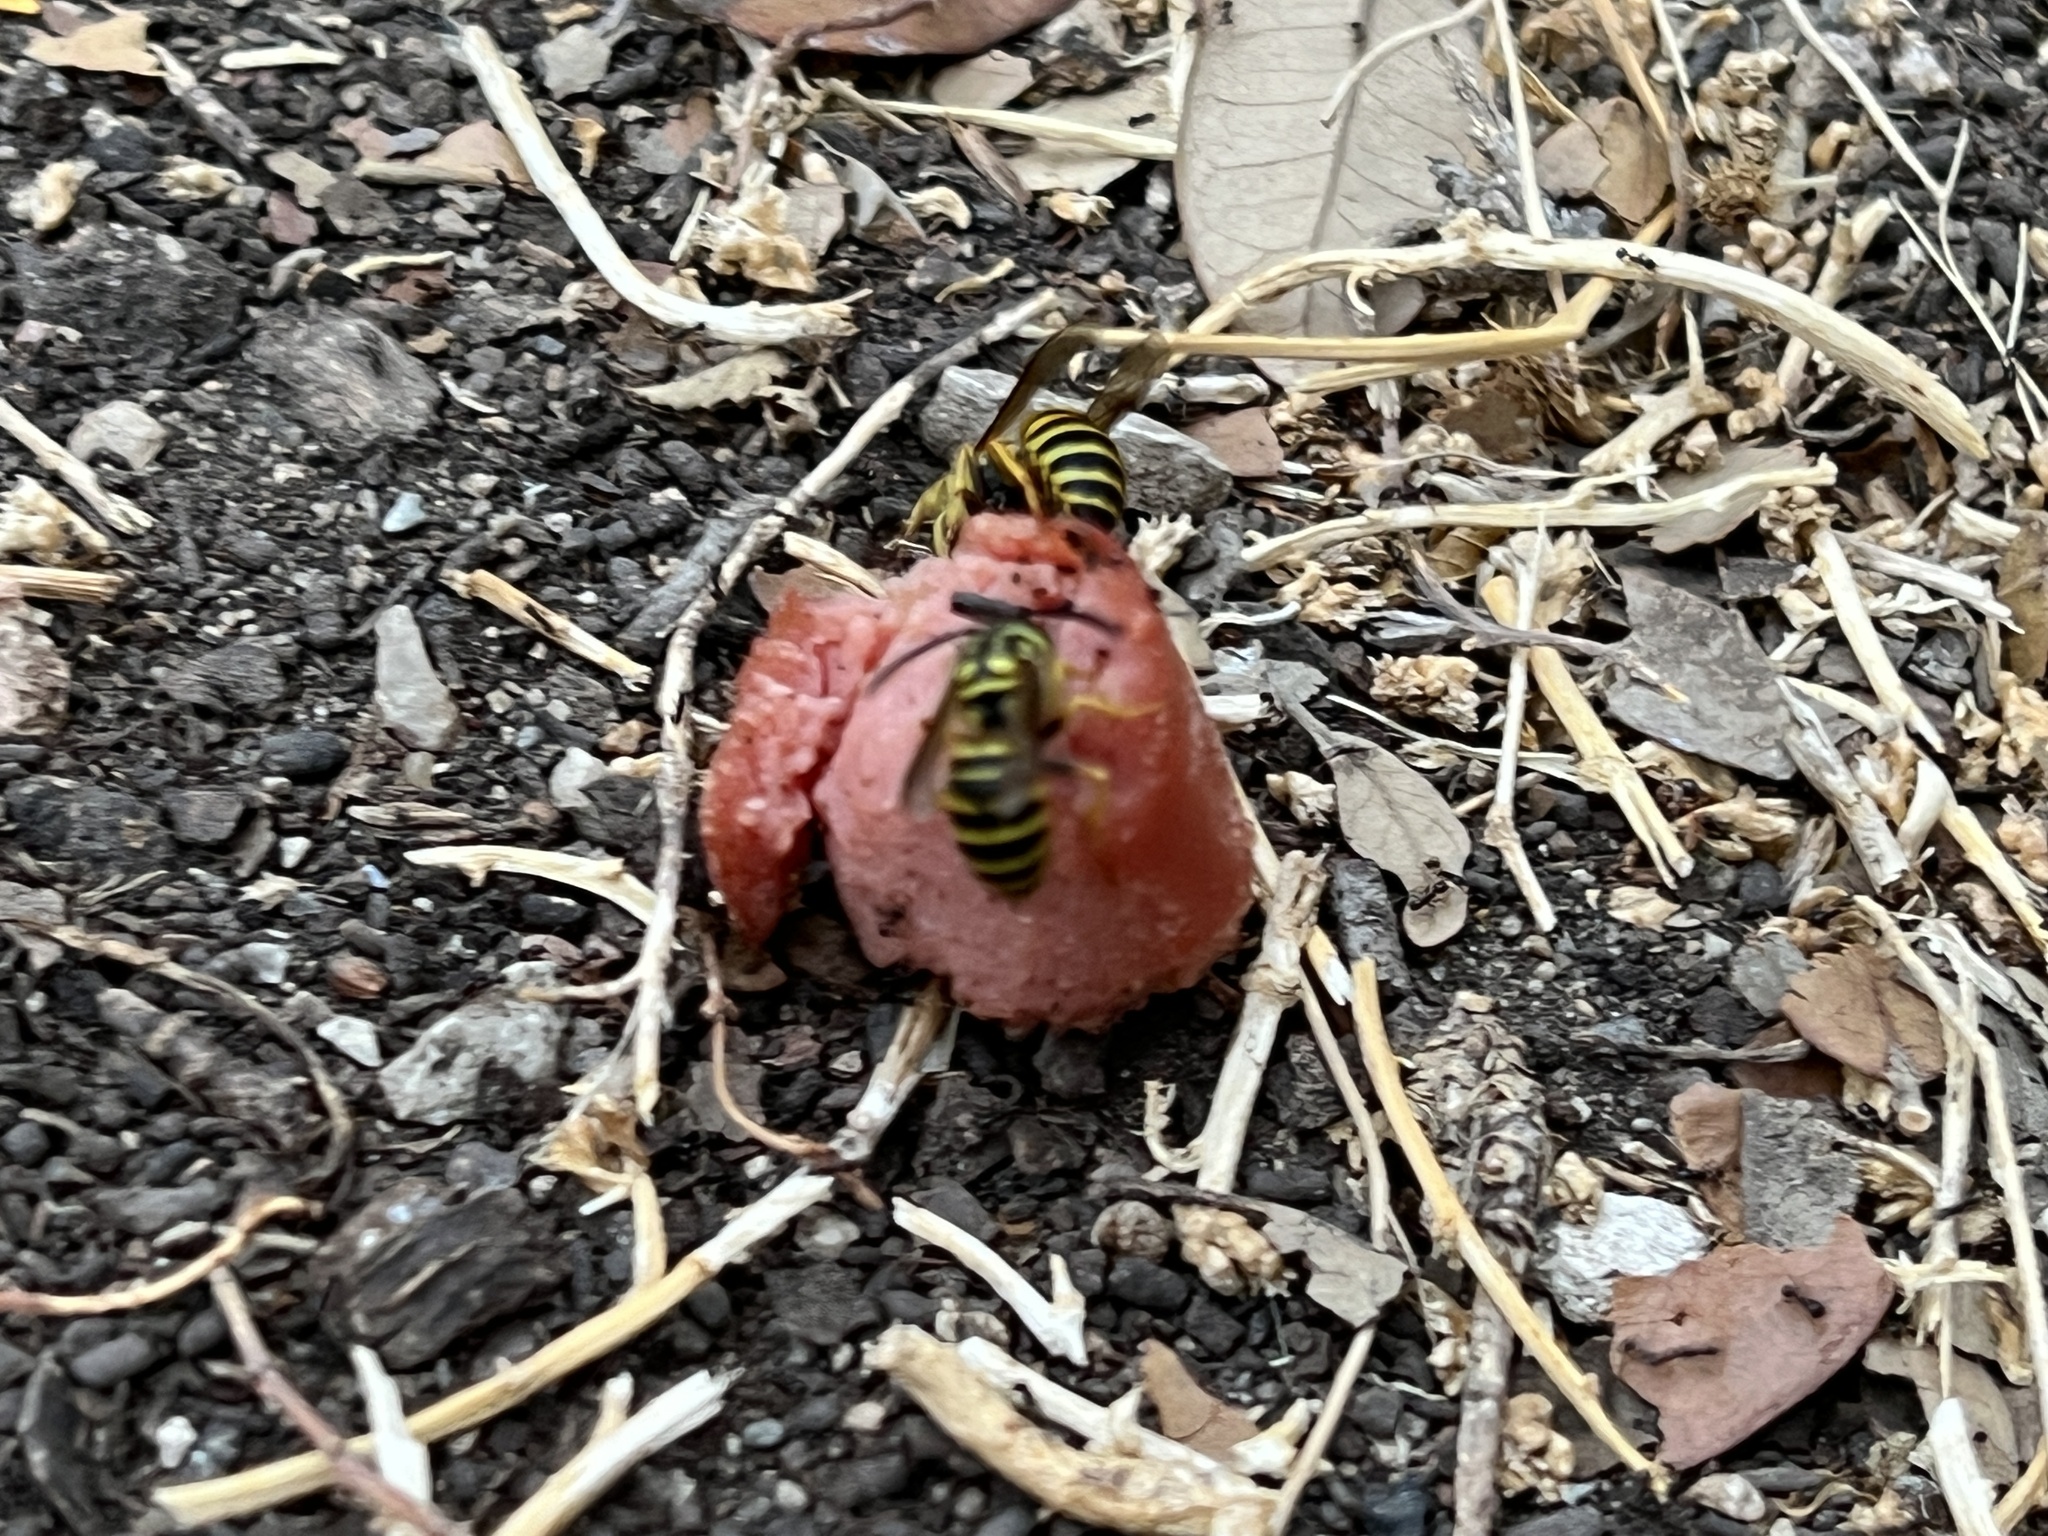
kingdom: Animalia
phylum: Arthropoda
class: Insecta
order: Hymenoptera
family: Vespidae
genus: Vespula
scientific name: Vespula squamosa
